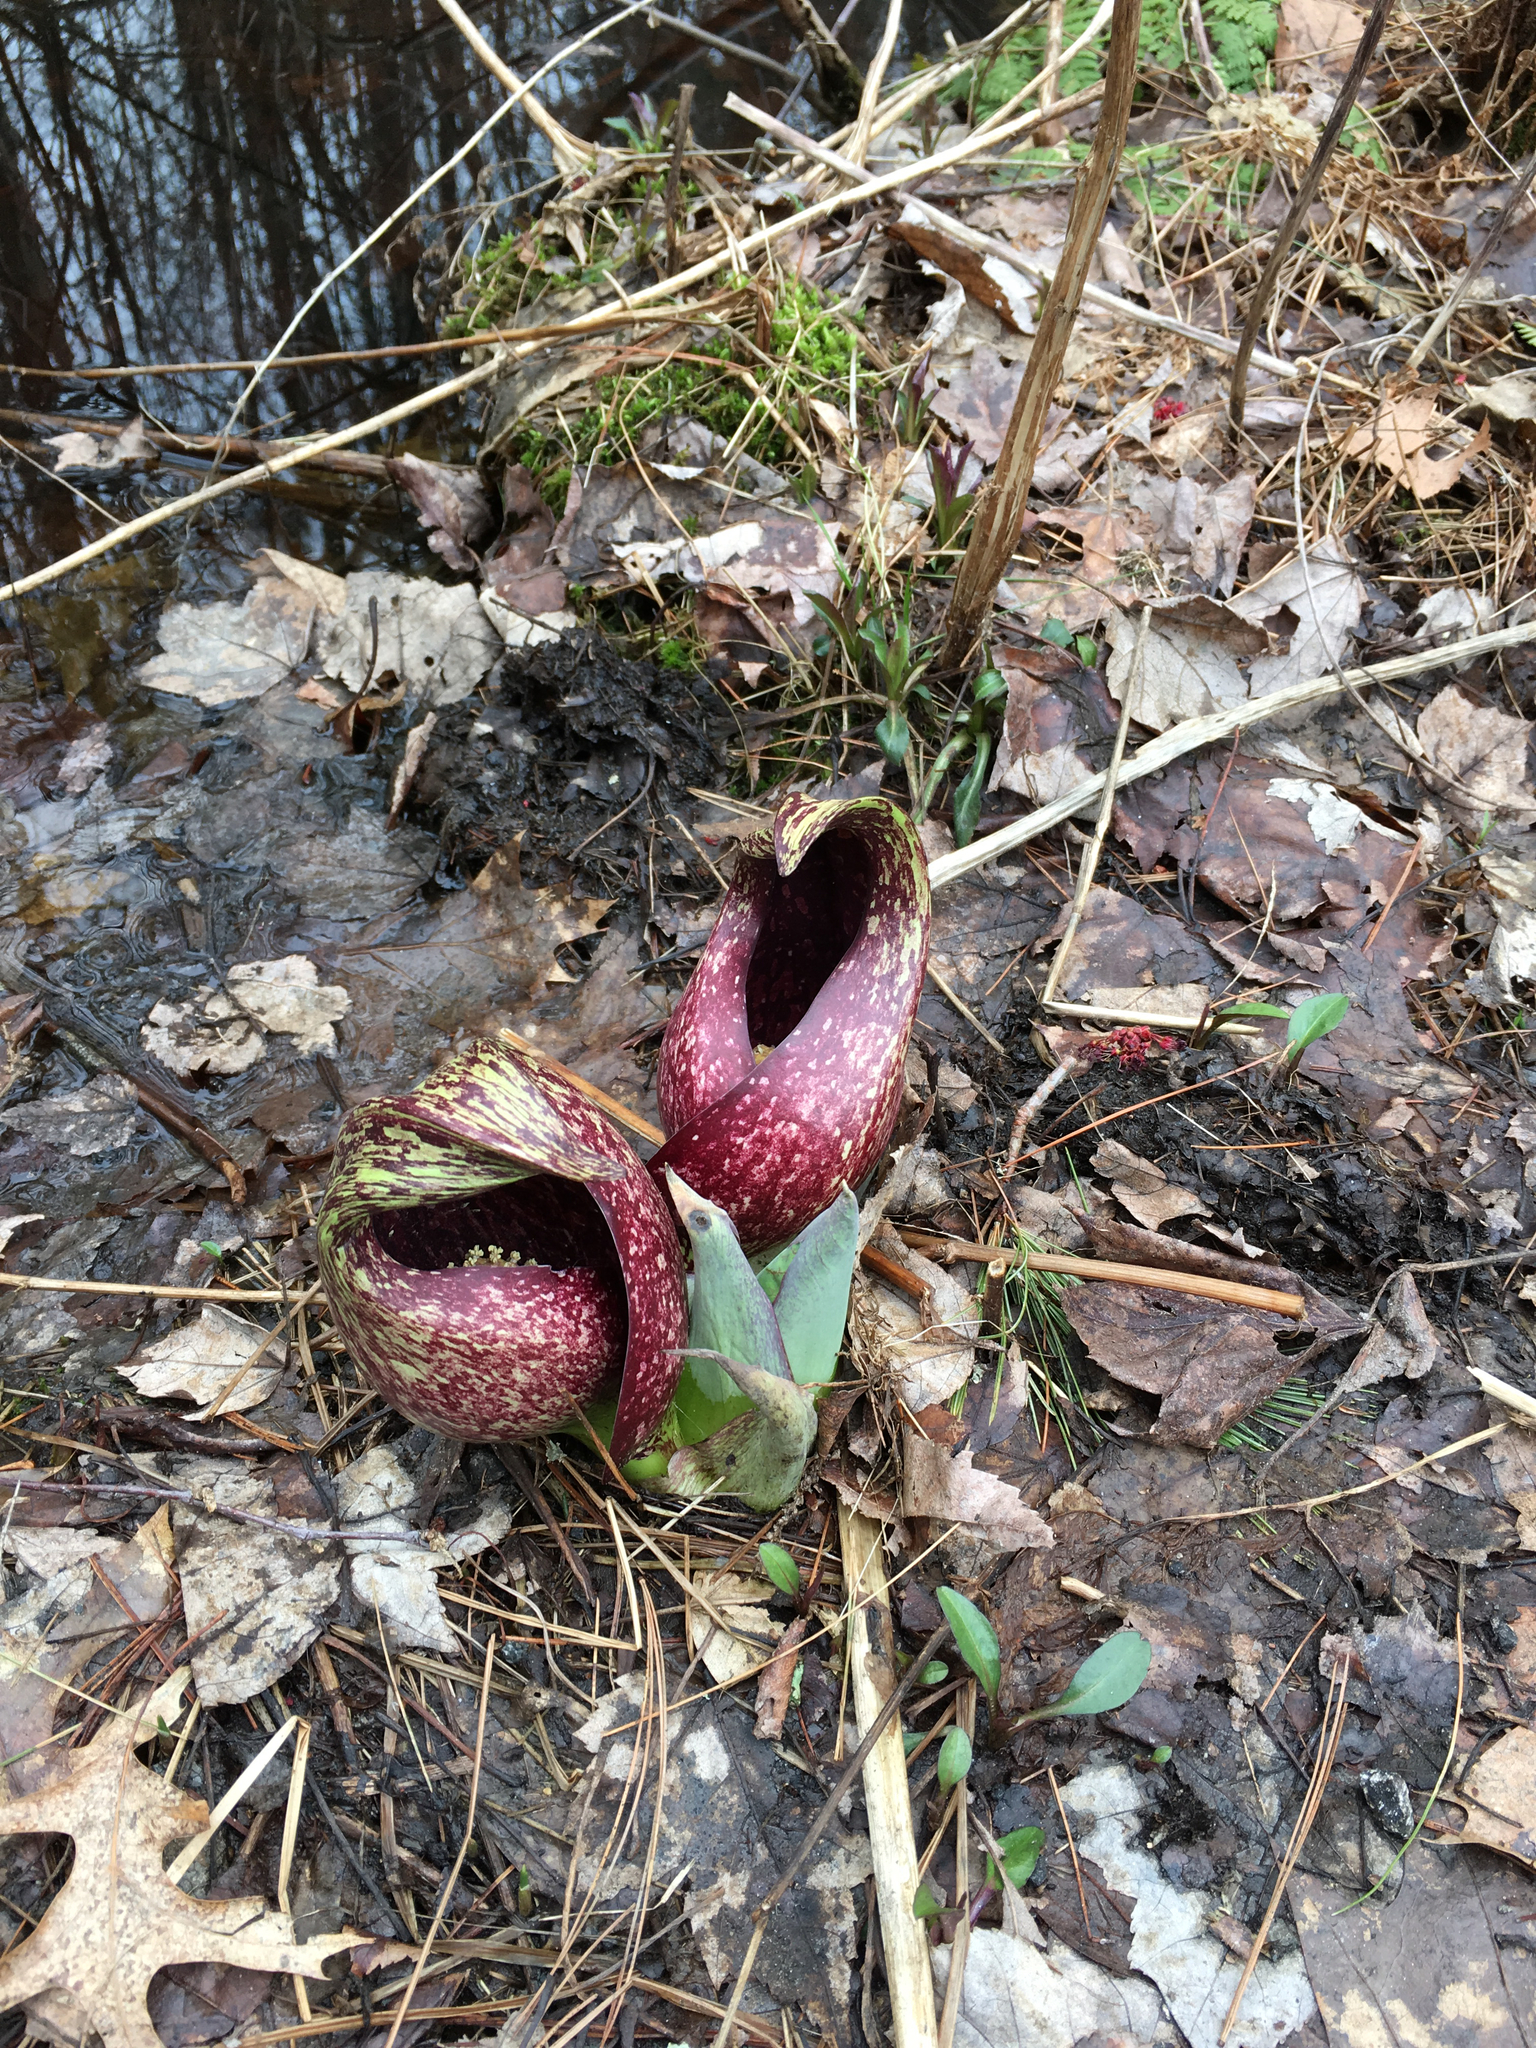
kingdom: Plantae
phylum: Tracheophyta
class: Liliopsida
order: Alismatales
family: Araceae
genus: Symplocarpus
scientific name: Symplocarpus foetidus
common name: Eastern skunk cabbage
